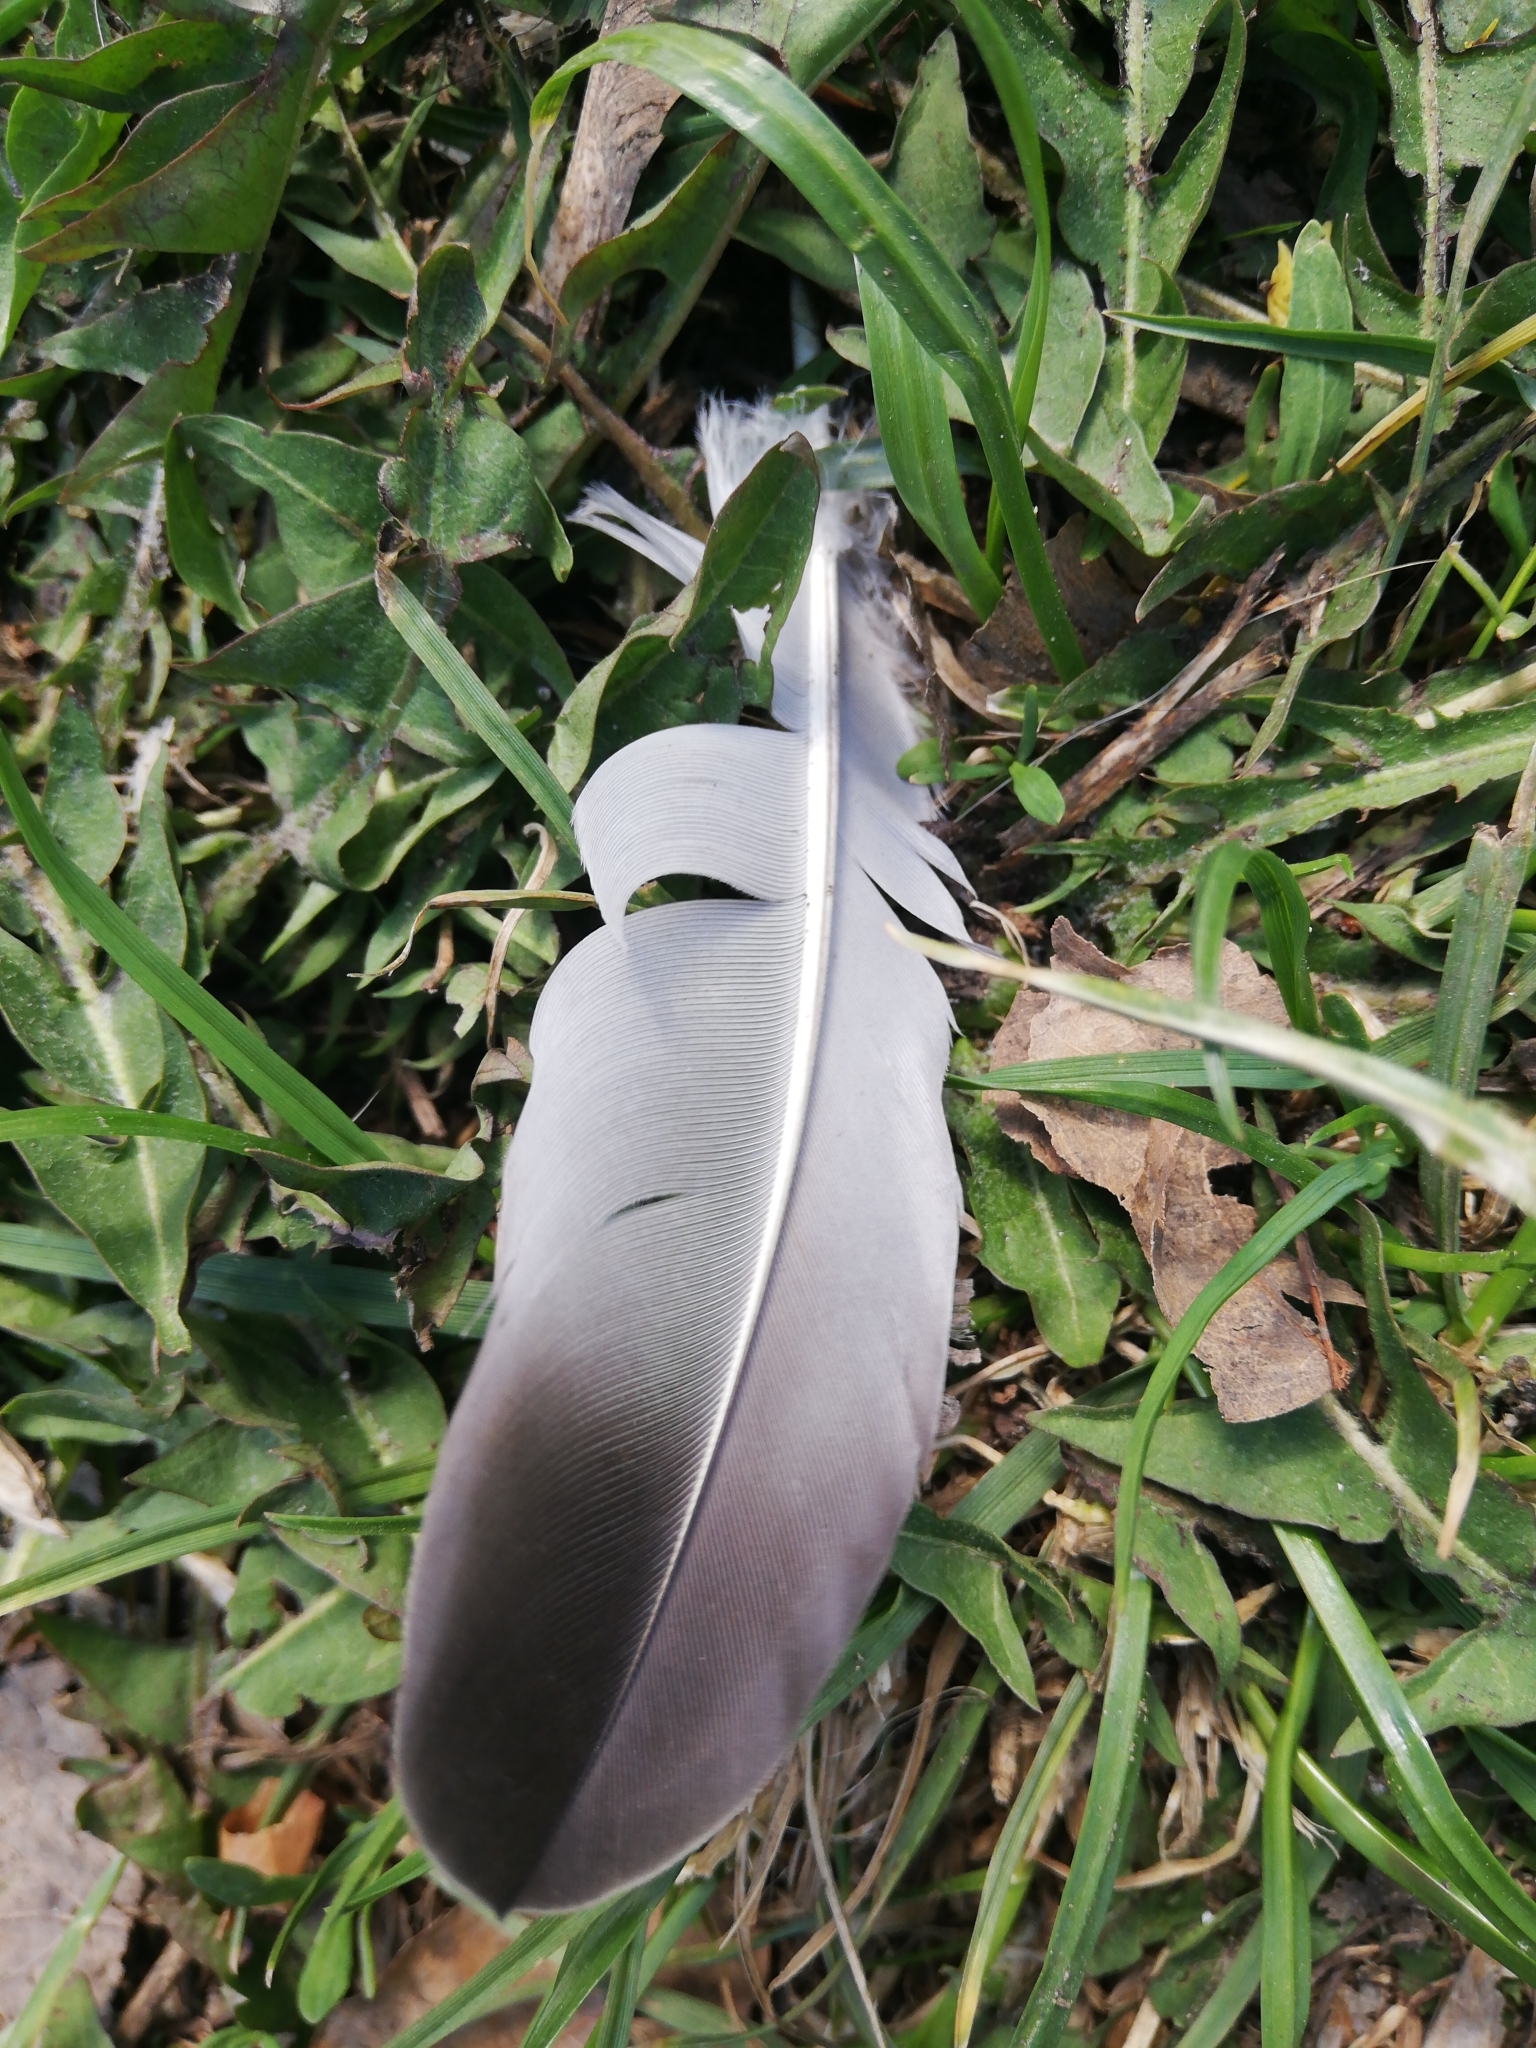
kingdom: Animalia
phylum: Chordata
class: Aves
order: Columbiformes
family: Columbidae
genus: Columba
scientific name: Columba livia
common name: Rock pigeon
